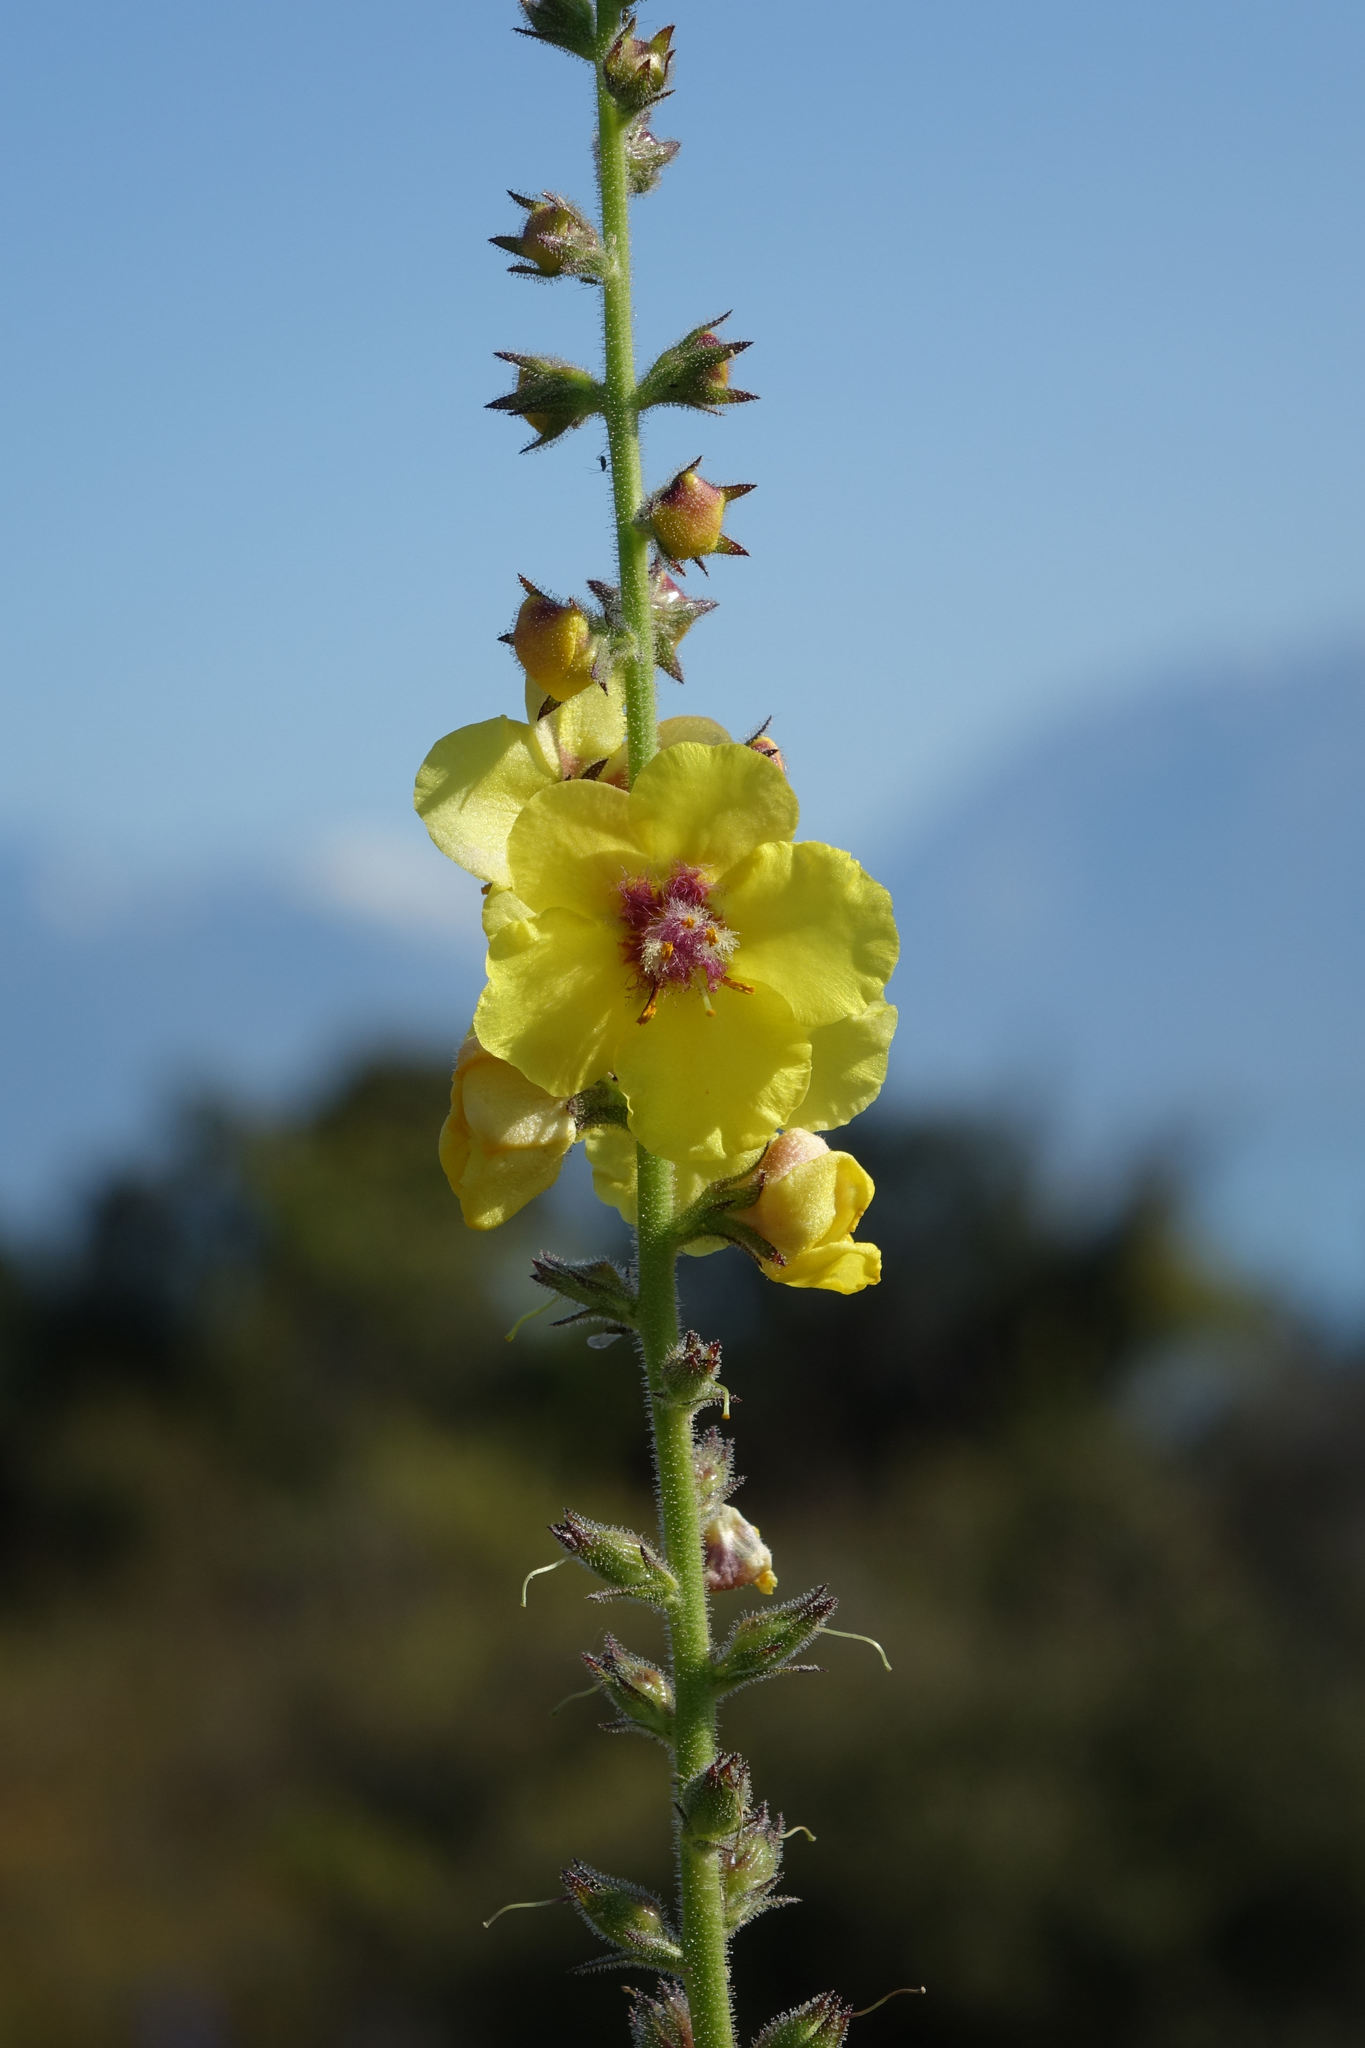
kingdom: Plantae
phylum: Tracheophyta
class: Magnoliopsida
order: Lamiales
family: Scrophulariaceae
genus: Verbascum
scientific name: Verbascum virgatum
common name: Twiggy mullein
